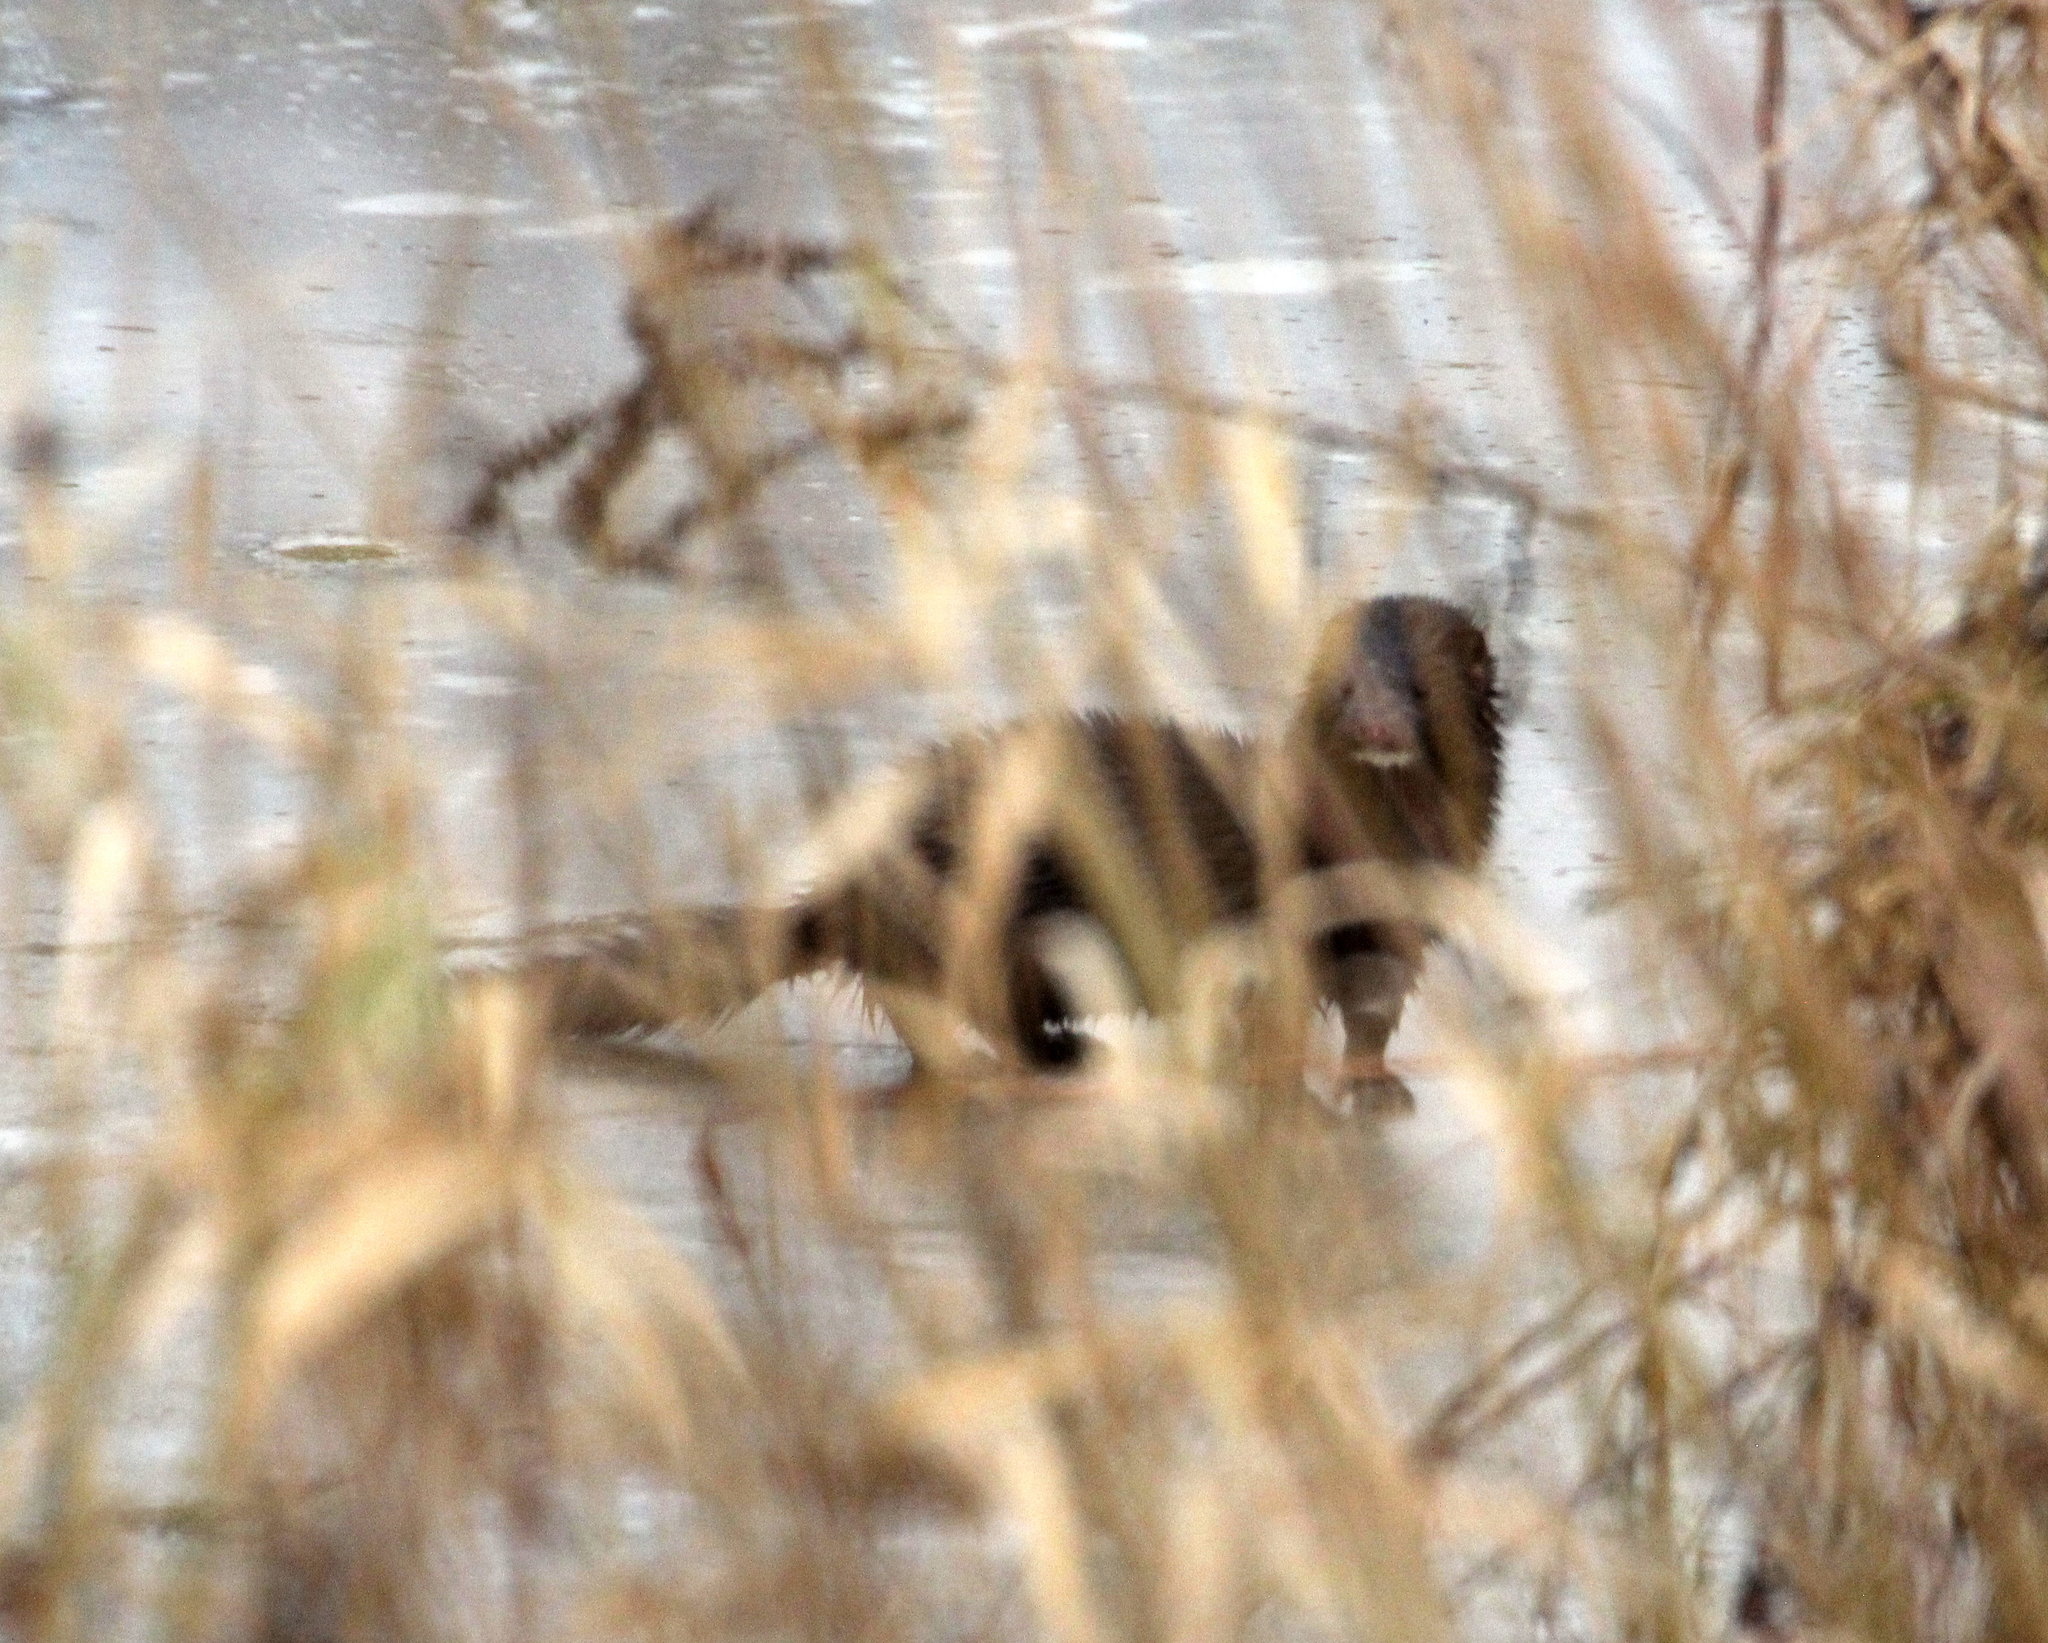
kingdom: Animalia
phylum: Chordata
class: Mammalia
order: Carnivora
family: Mustelidae
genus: Mustela
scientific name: Mustela
